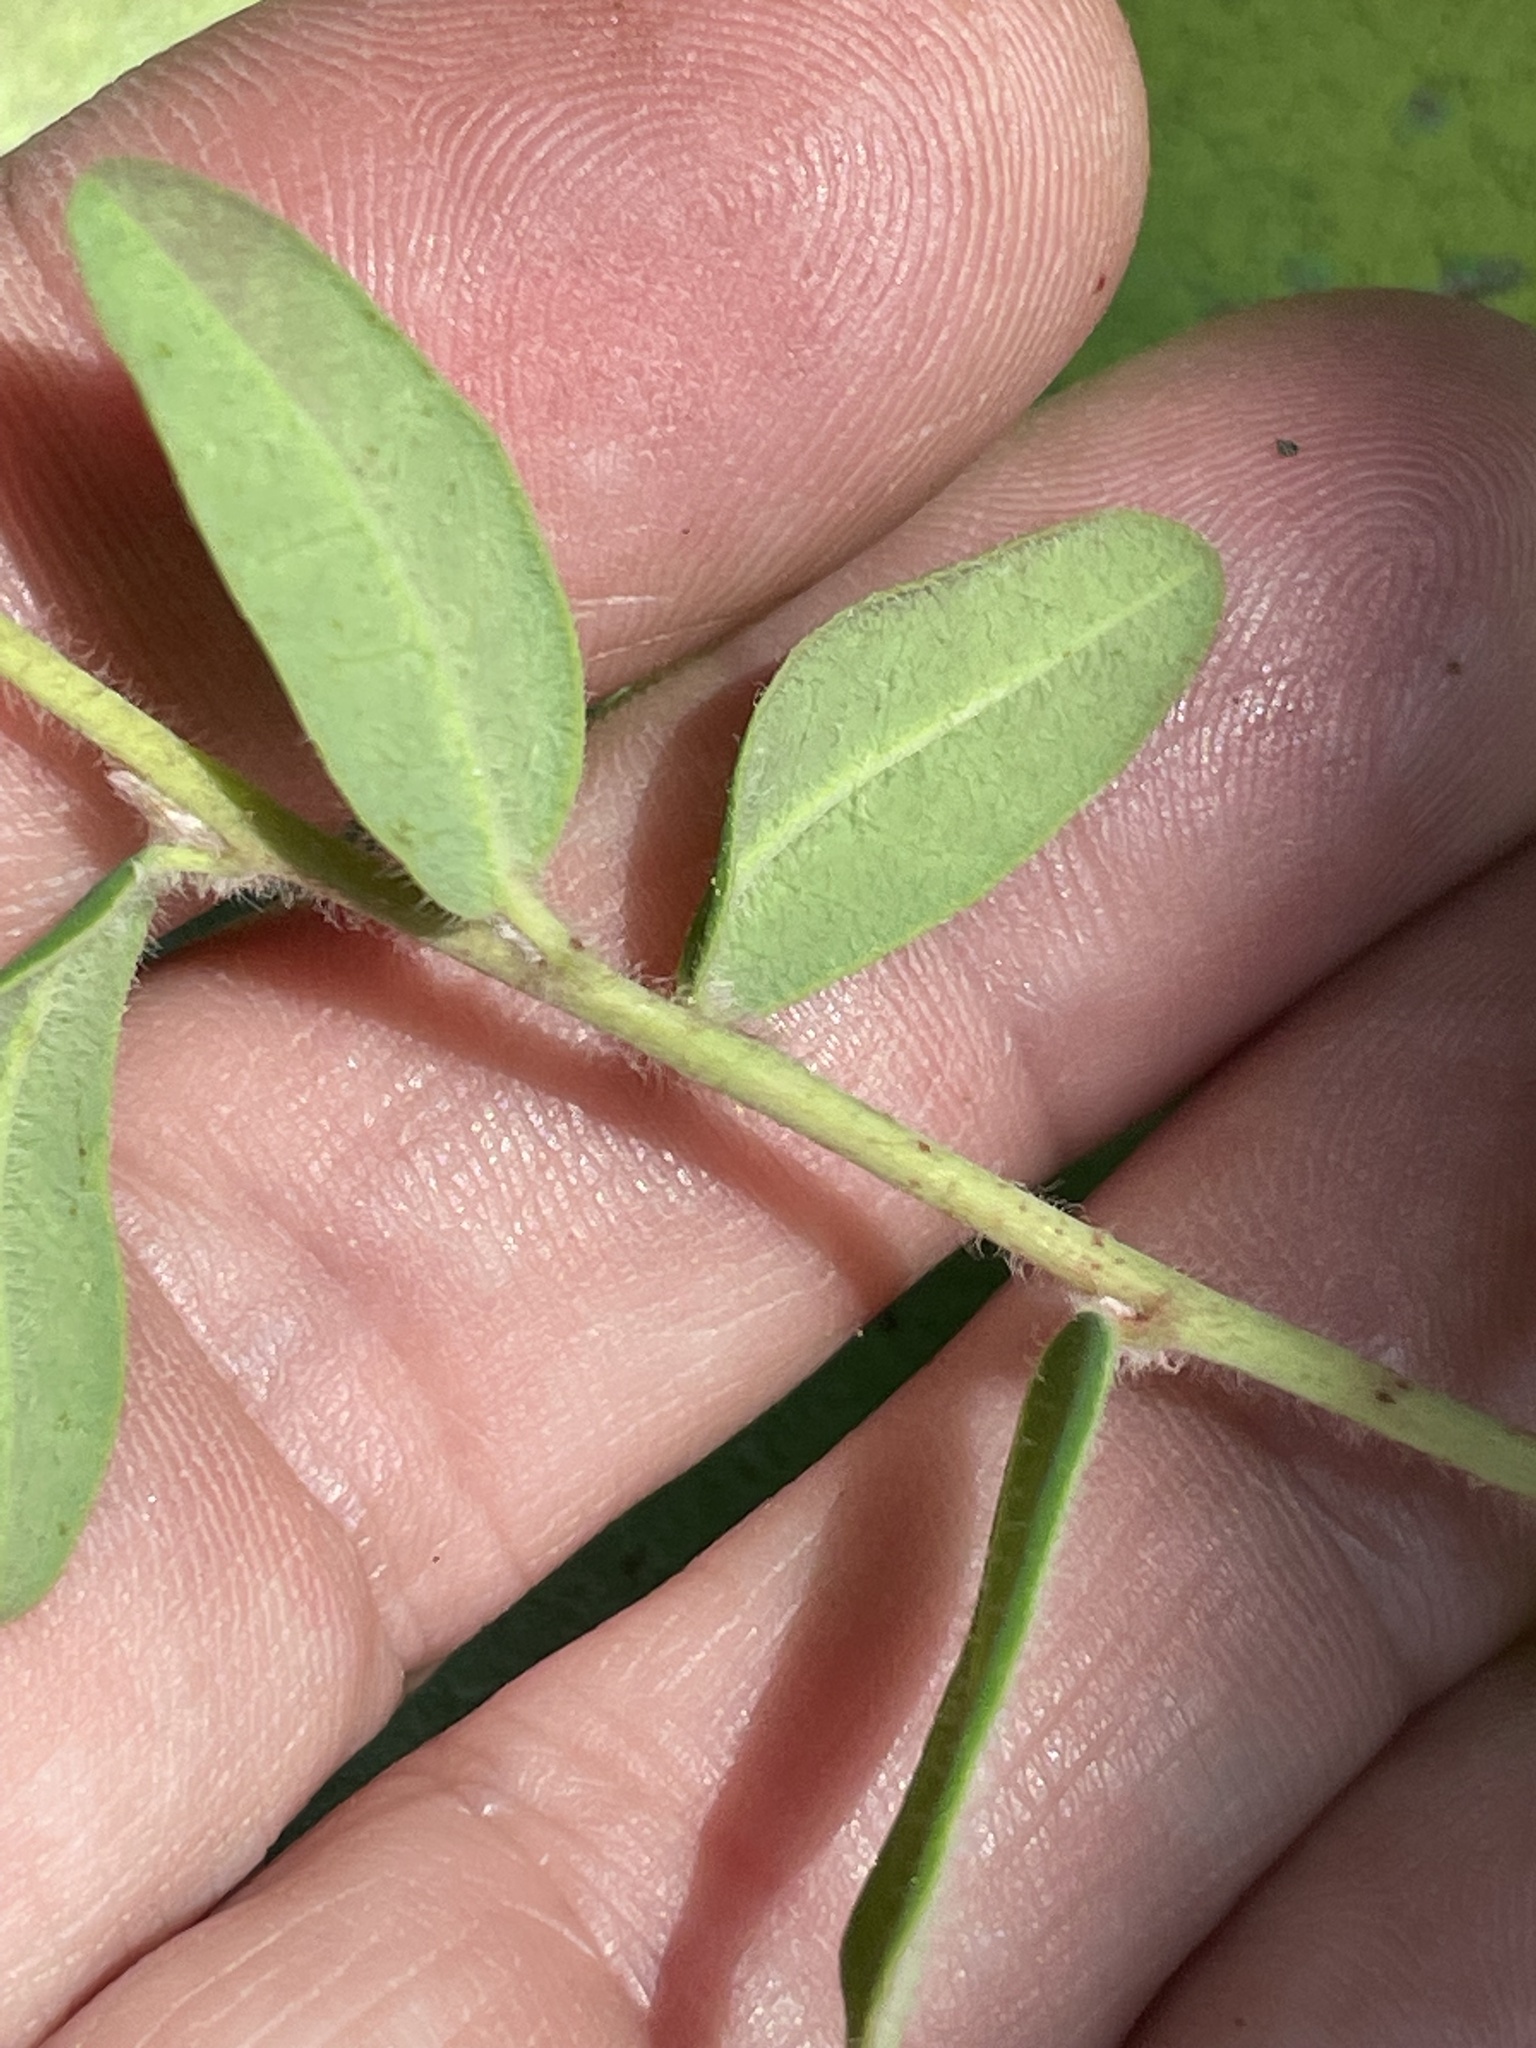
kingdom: Plantae
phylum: Tracheophyta
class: Magnoliopsida
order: Malpighiales
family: Euphorbiaceae
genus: Euphorbia
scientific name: Euphorbia pubentissima
